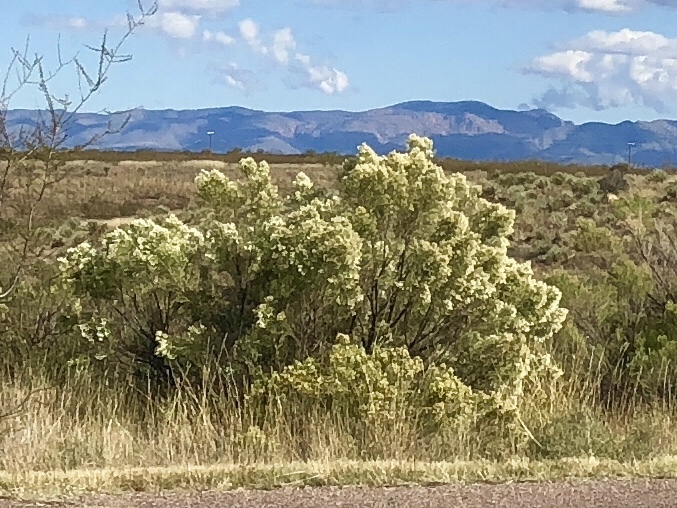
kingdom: Plantae
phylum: Tracheophyta
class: Magnoliopsida
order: Asterales
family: Asteraceae
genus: Baccharis
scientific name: Baccharis sarothroides
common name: Desert-broom
